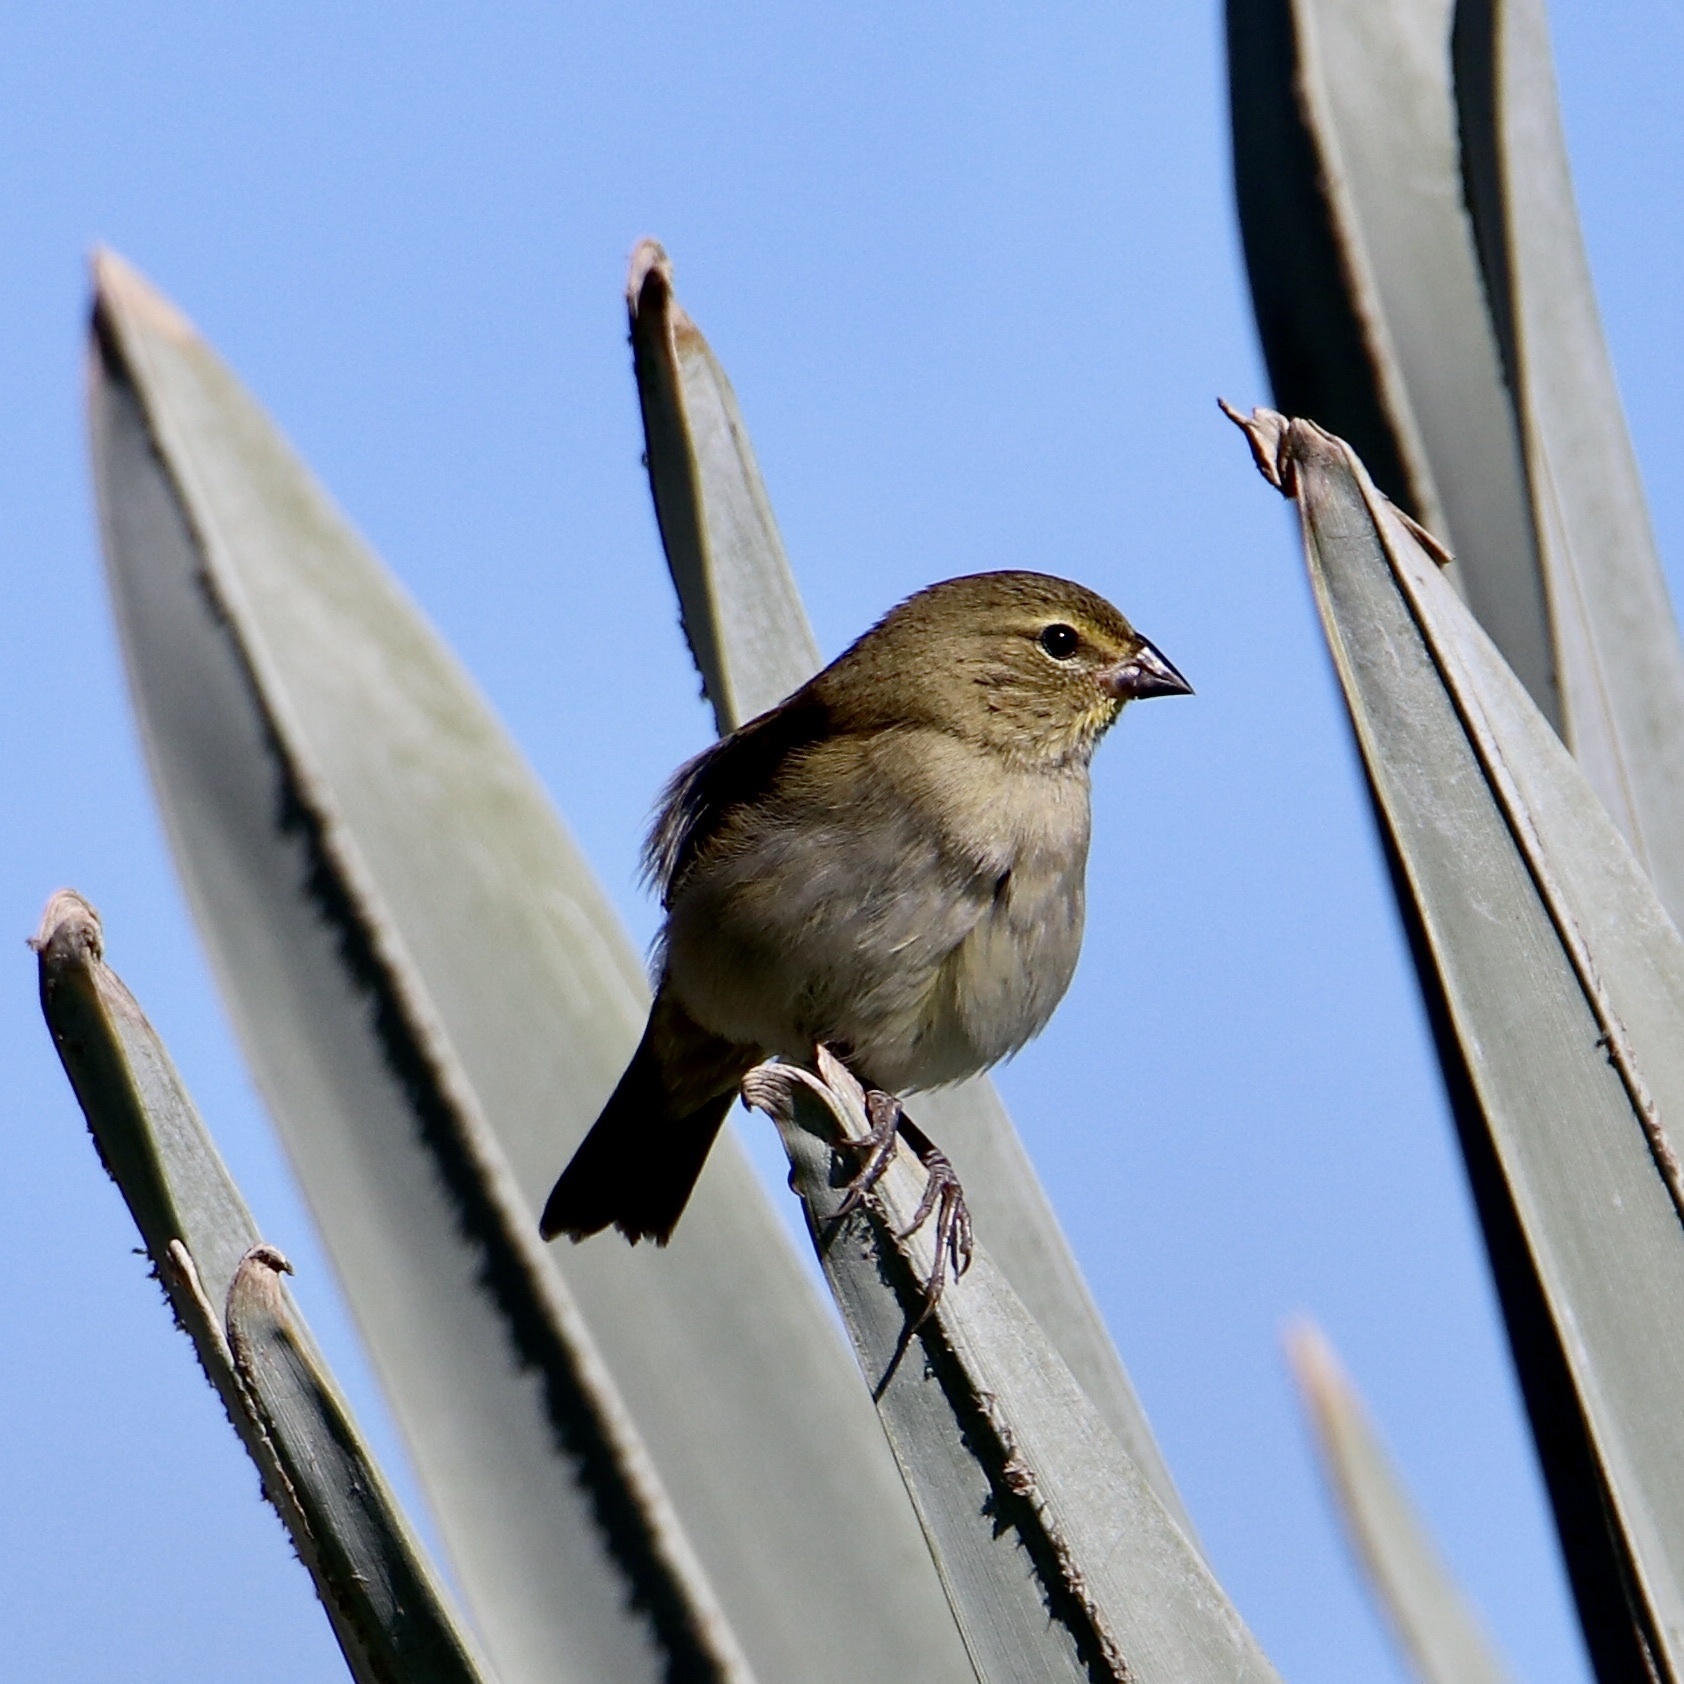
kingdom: Animalia
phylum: Chordata
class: Aves
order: Passeriformes
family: Thraupidae
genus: Tiaris
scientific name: Tiaris olivaceus
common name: Yellow-faced grassquit
